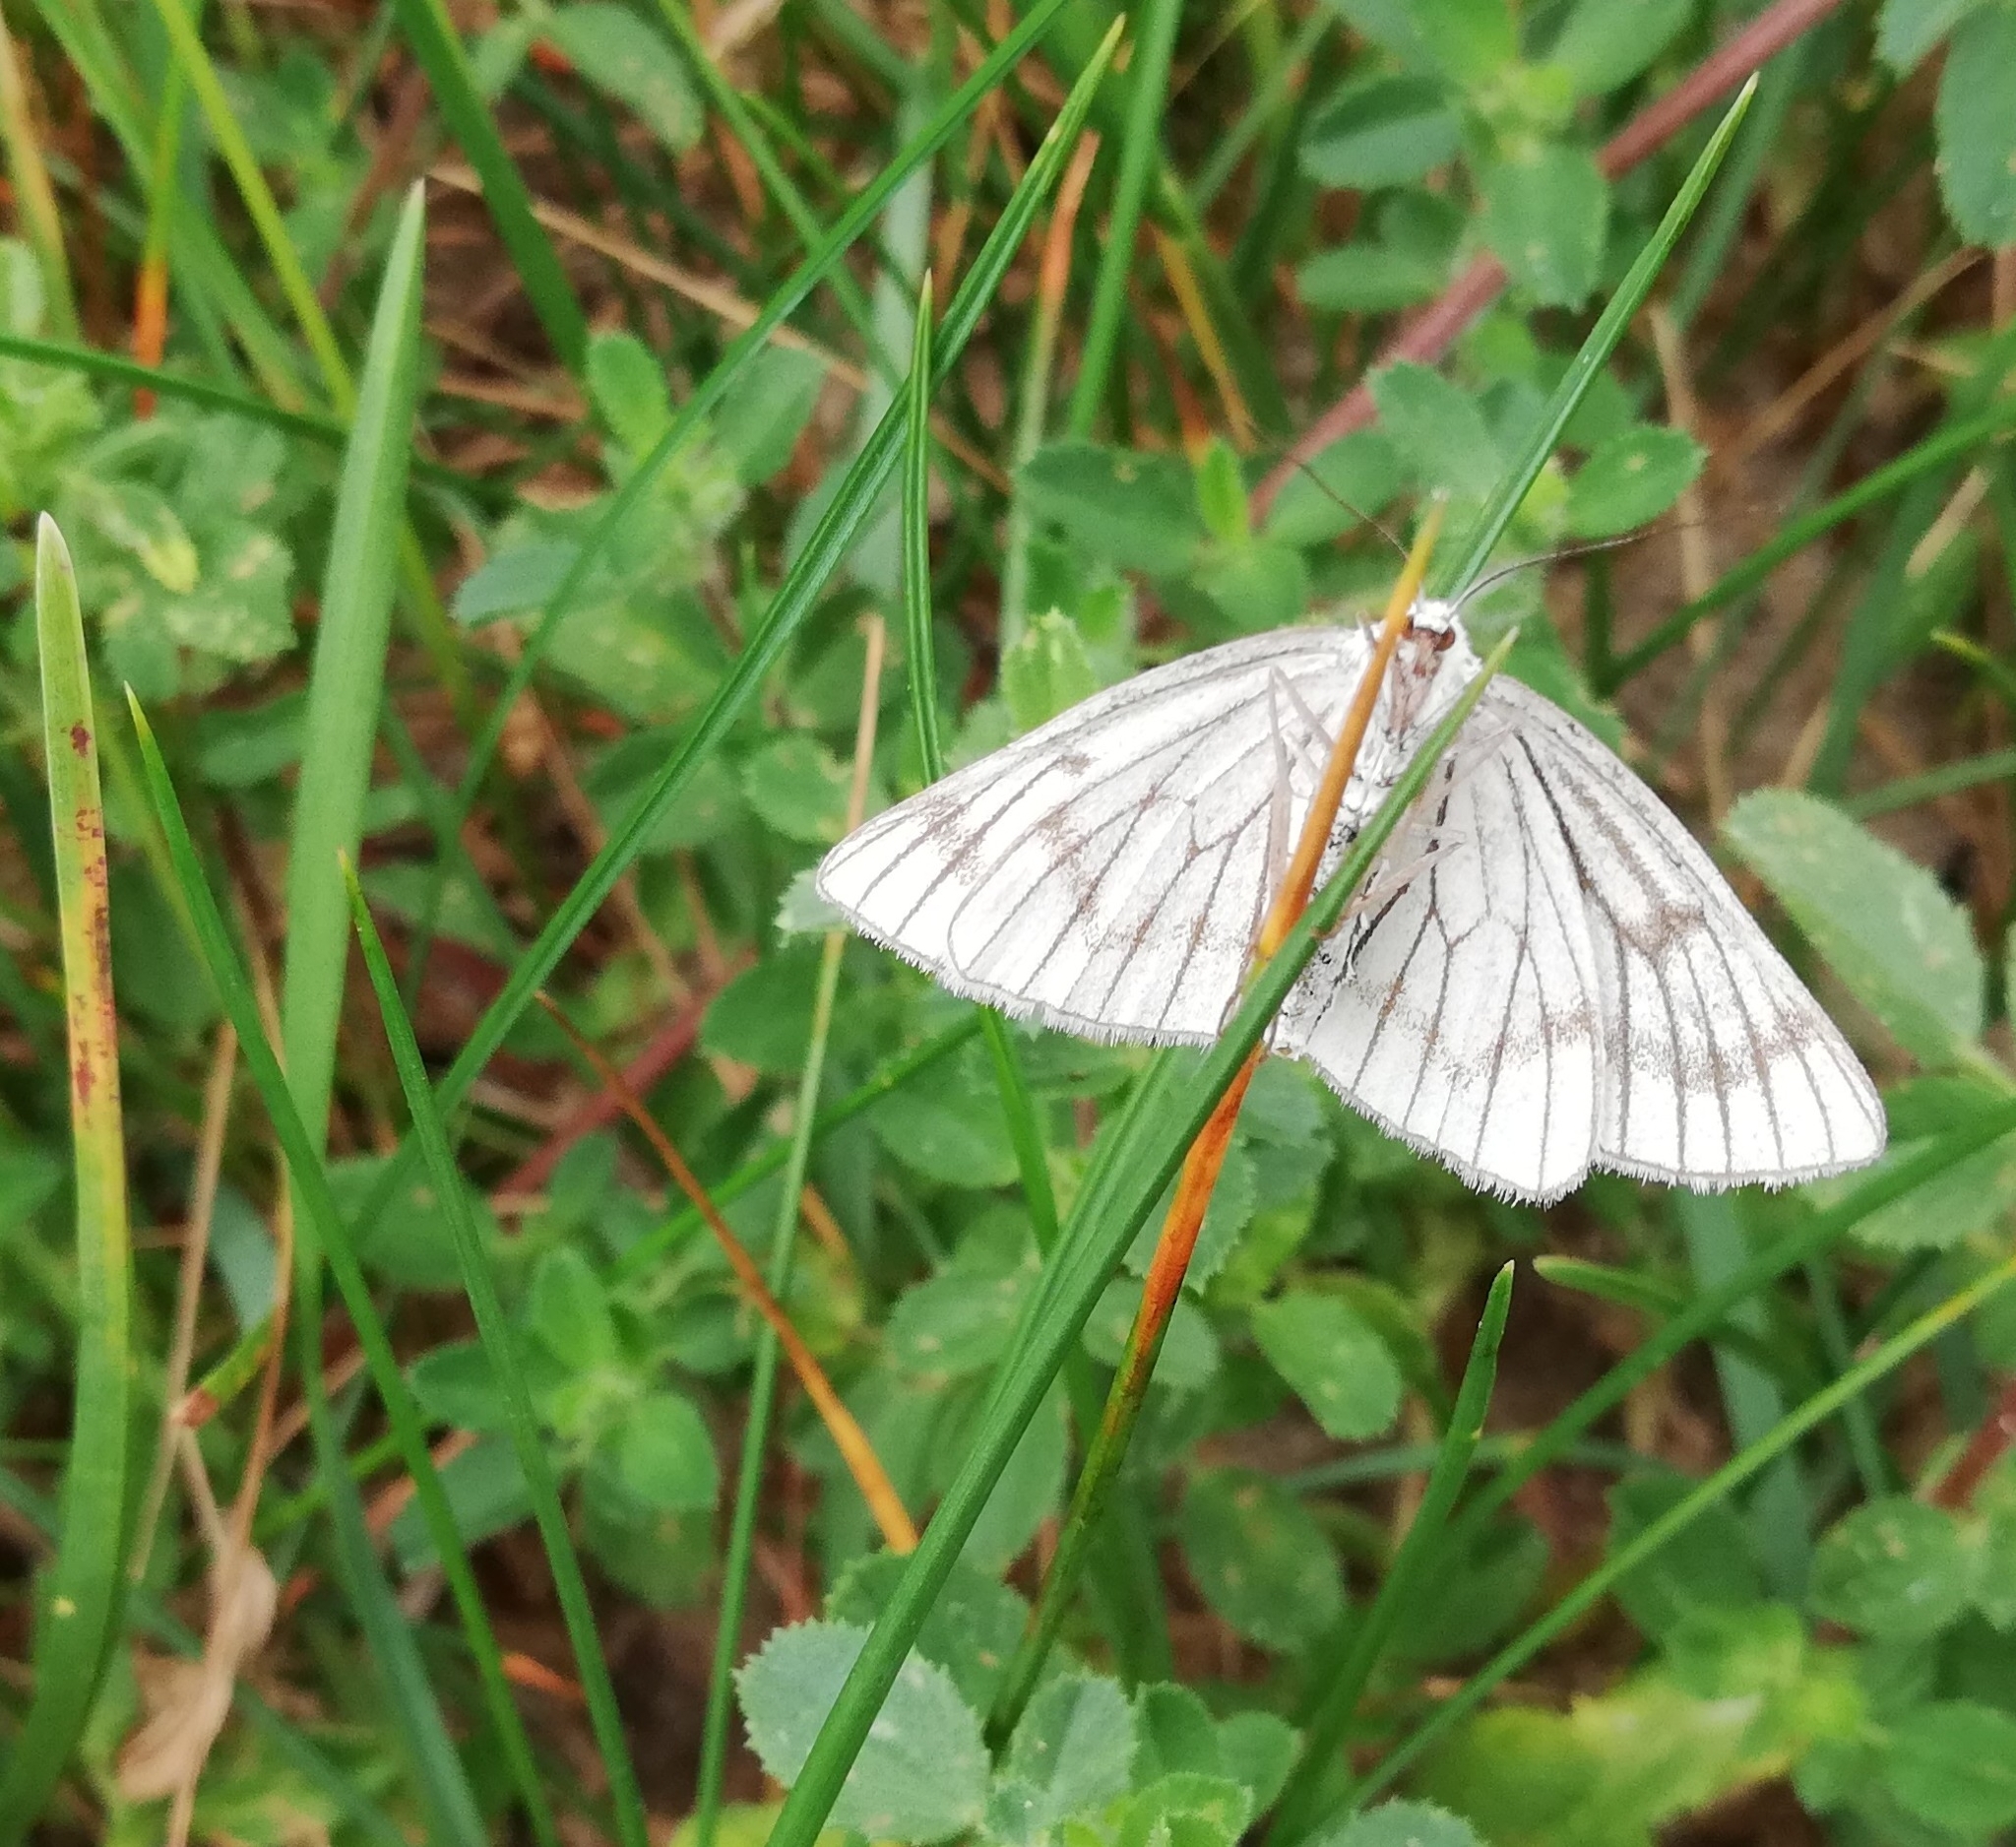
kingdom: Animalia
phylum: Arthropoda
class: Insecta
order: Lepidoptera
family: Geometridae
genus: Siona
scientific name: Siona lineata
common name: Black-veined moth
